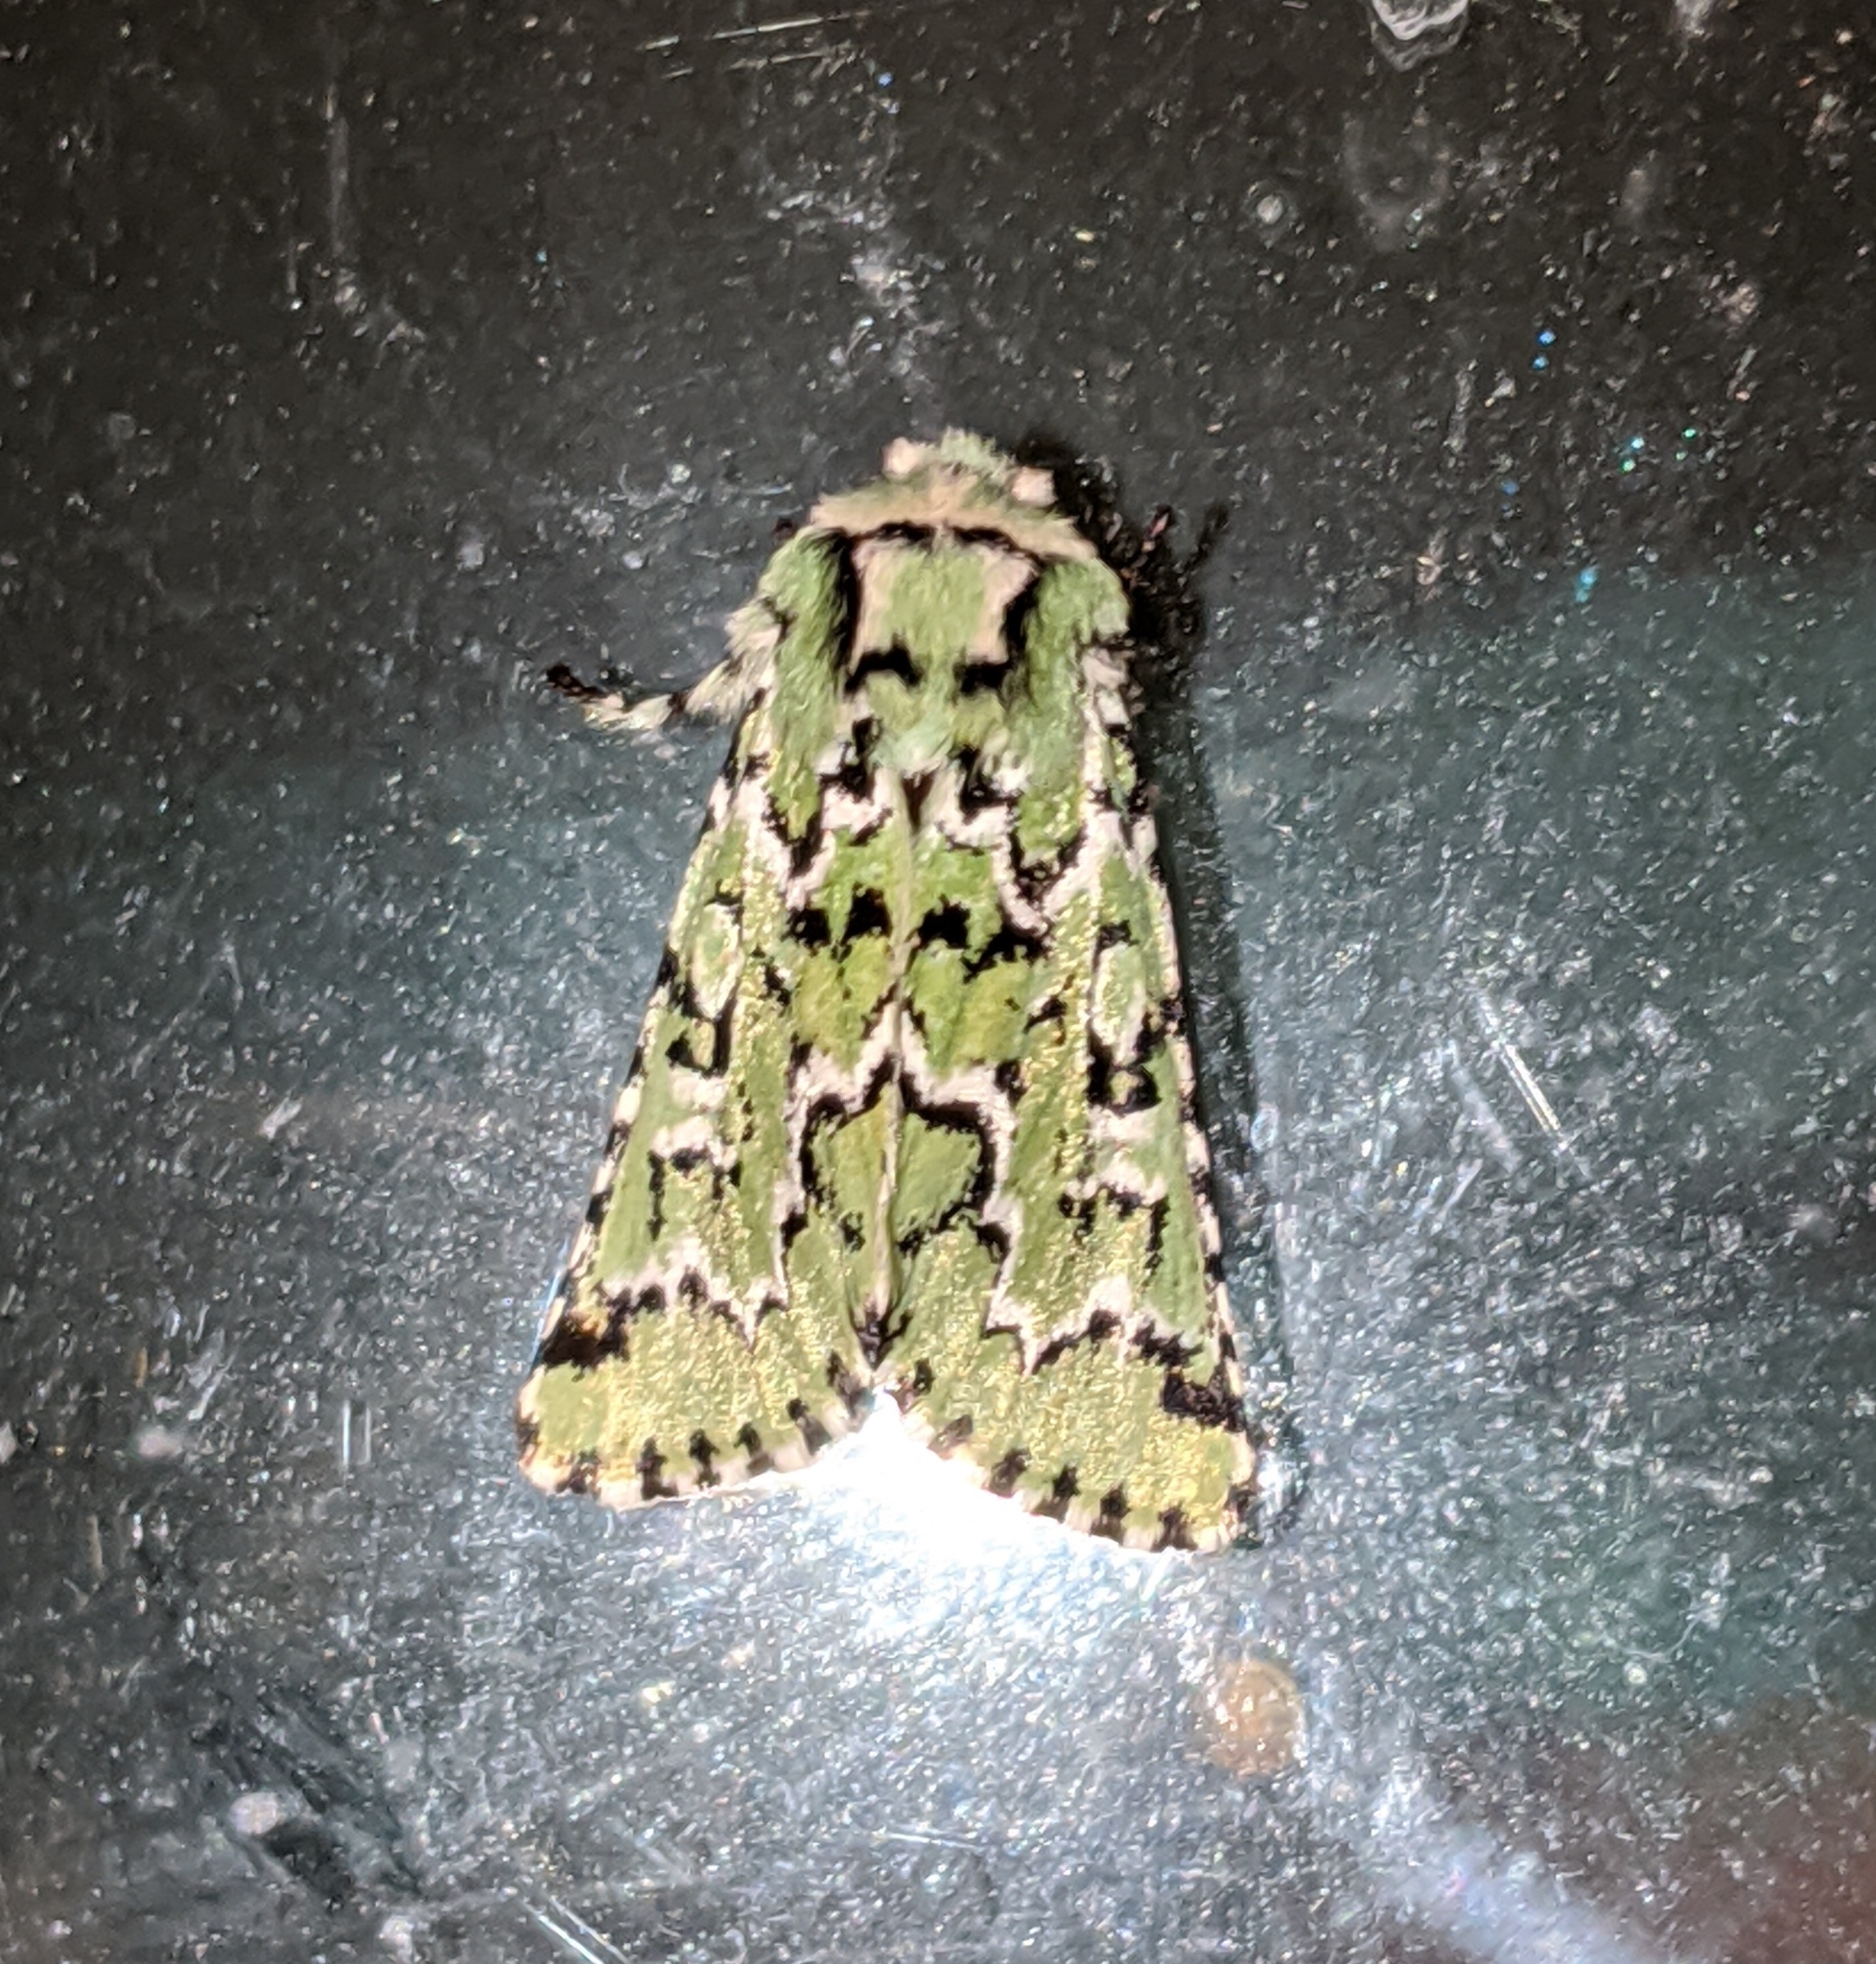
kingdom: Animalia
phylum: Arthropoda
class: Insecta
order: Lepidoptera
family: Noctuidae
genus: Feralia
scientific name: Feralia deceptiva
